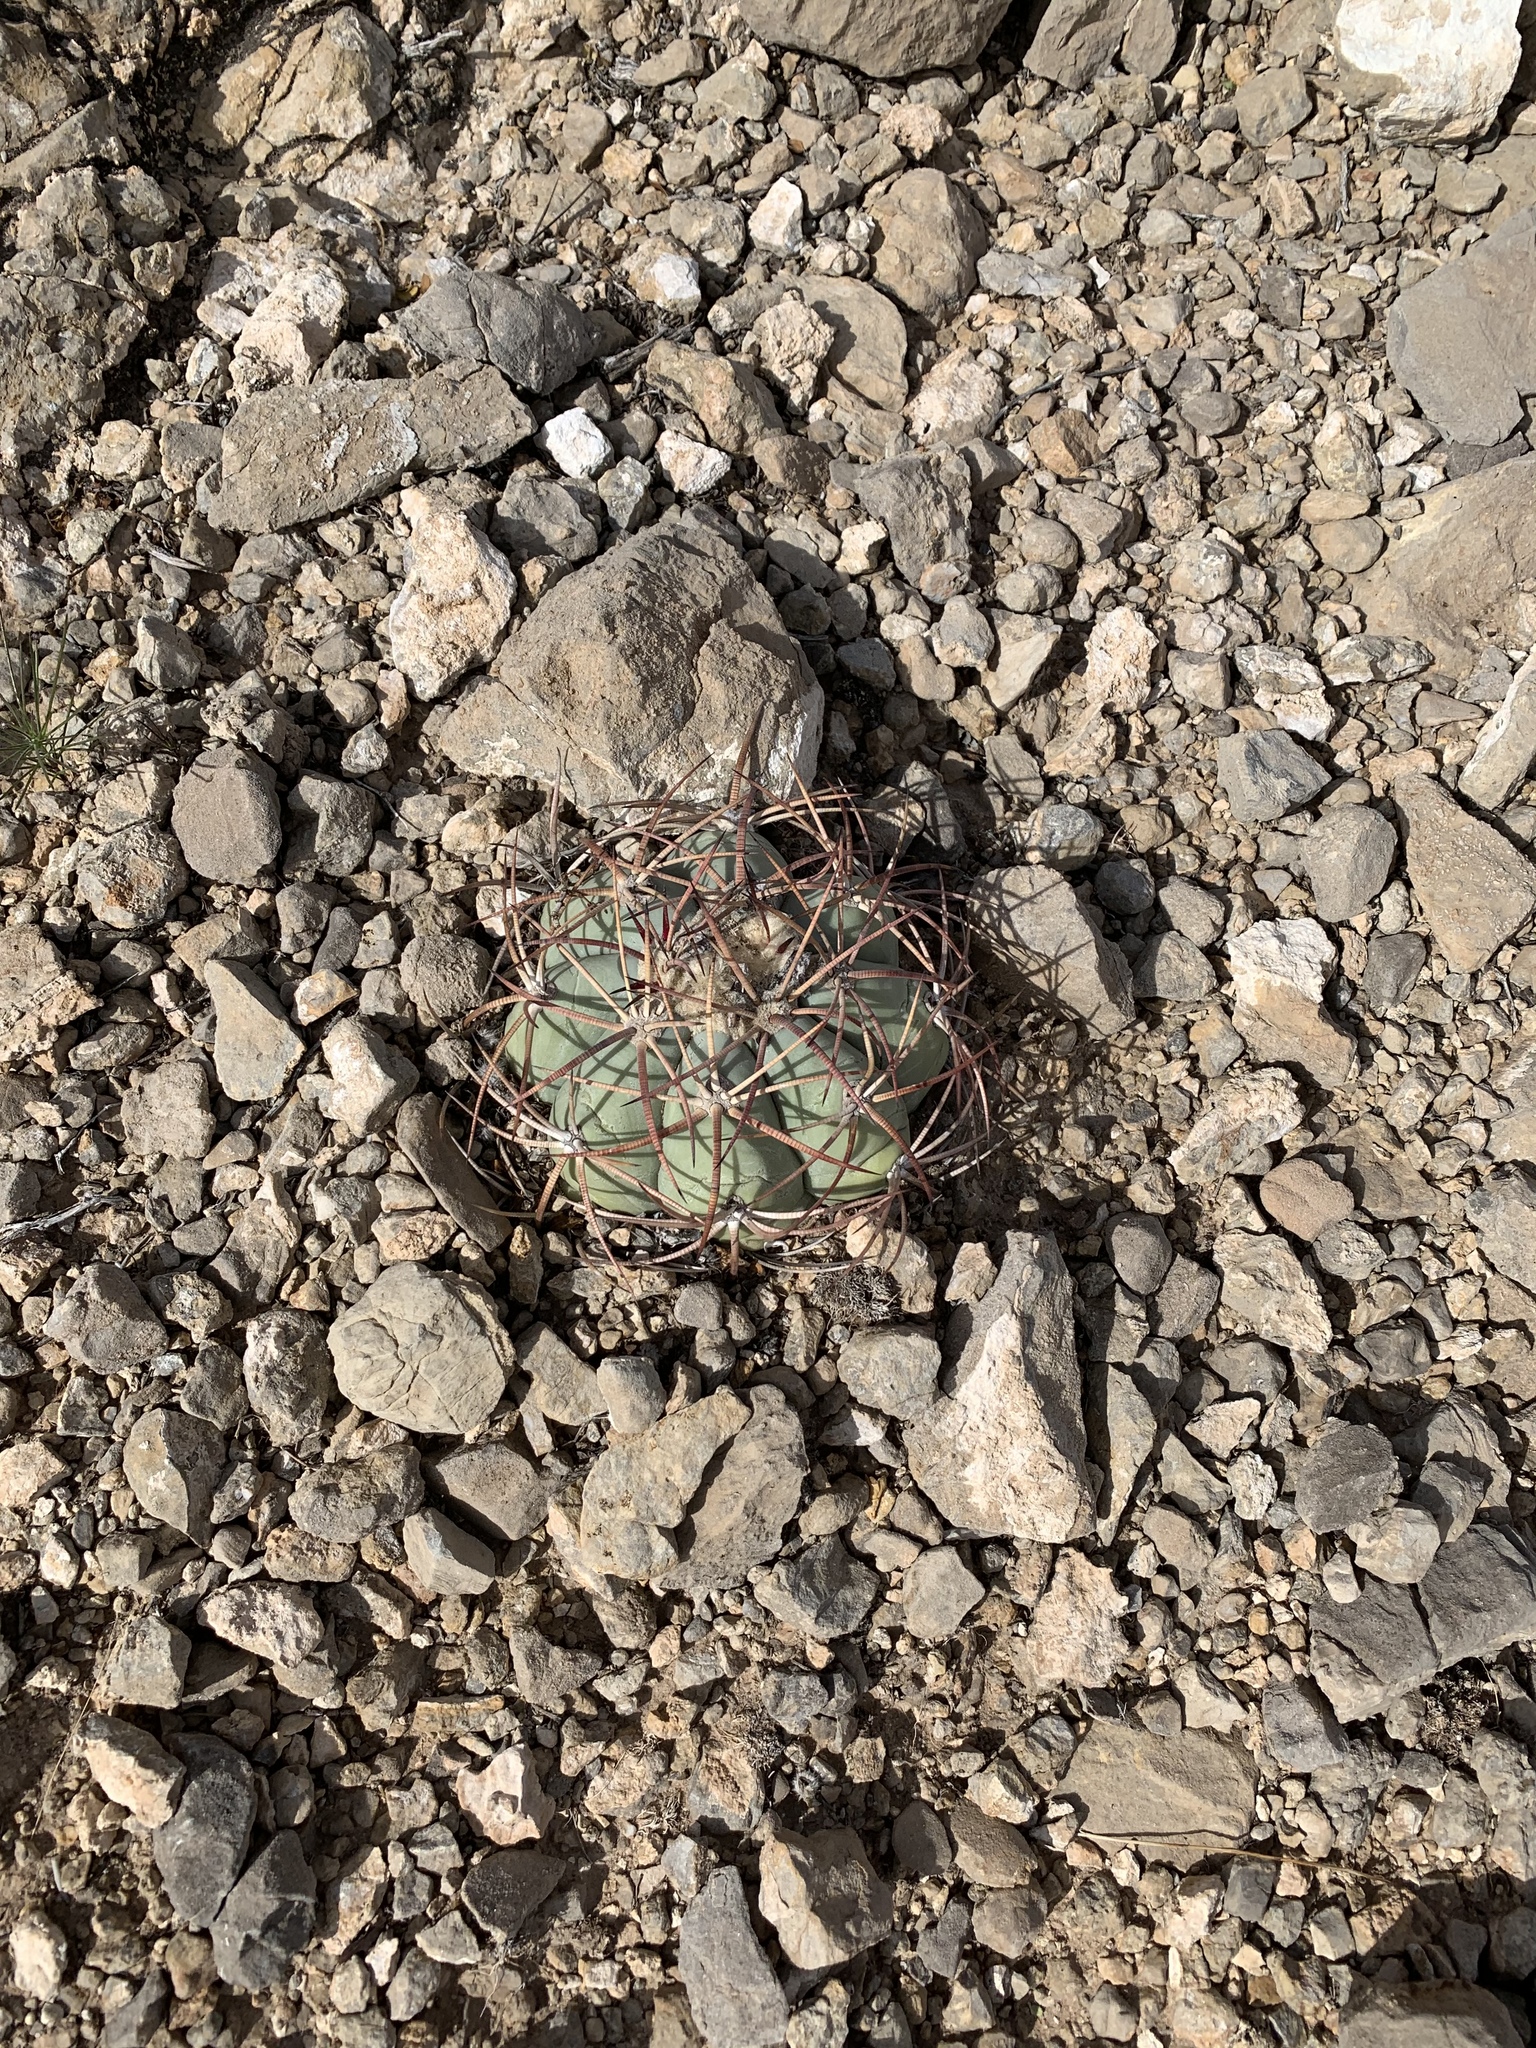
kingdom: Plantae
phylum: Tracheophyta
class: Magnoliopsida
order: Caryophyllales
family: Cactaceae
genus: Echinocactus
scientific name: Echinocactus horizonthalonius
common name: Devilshead
